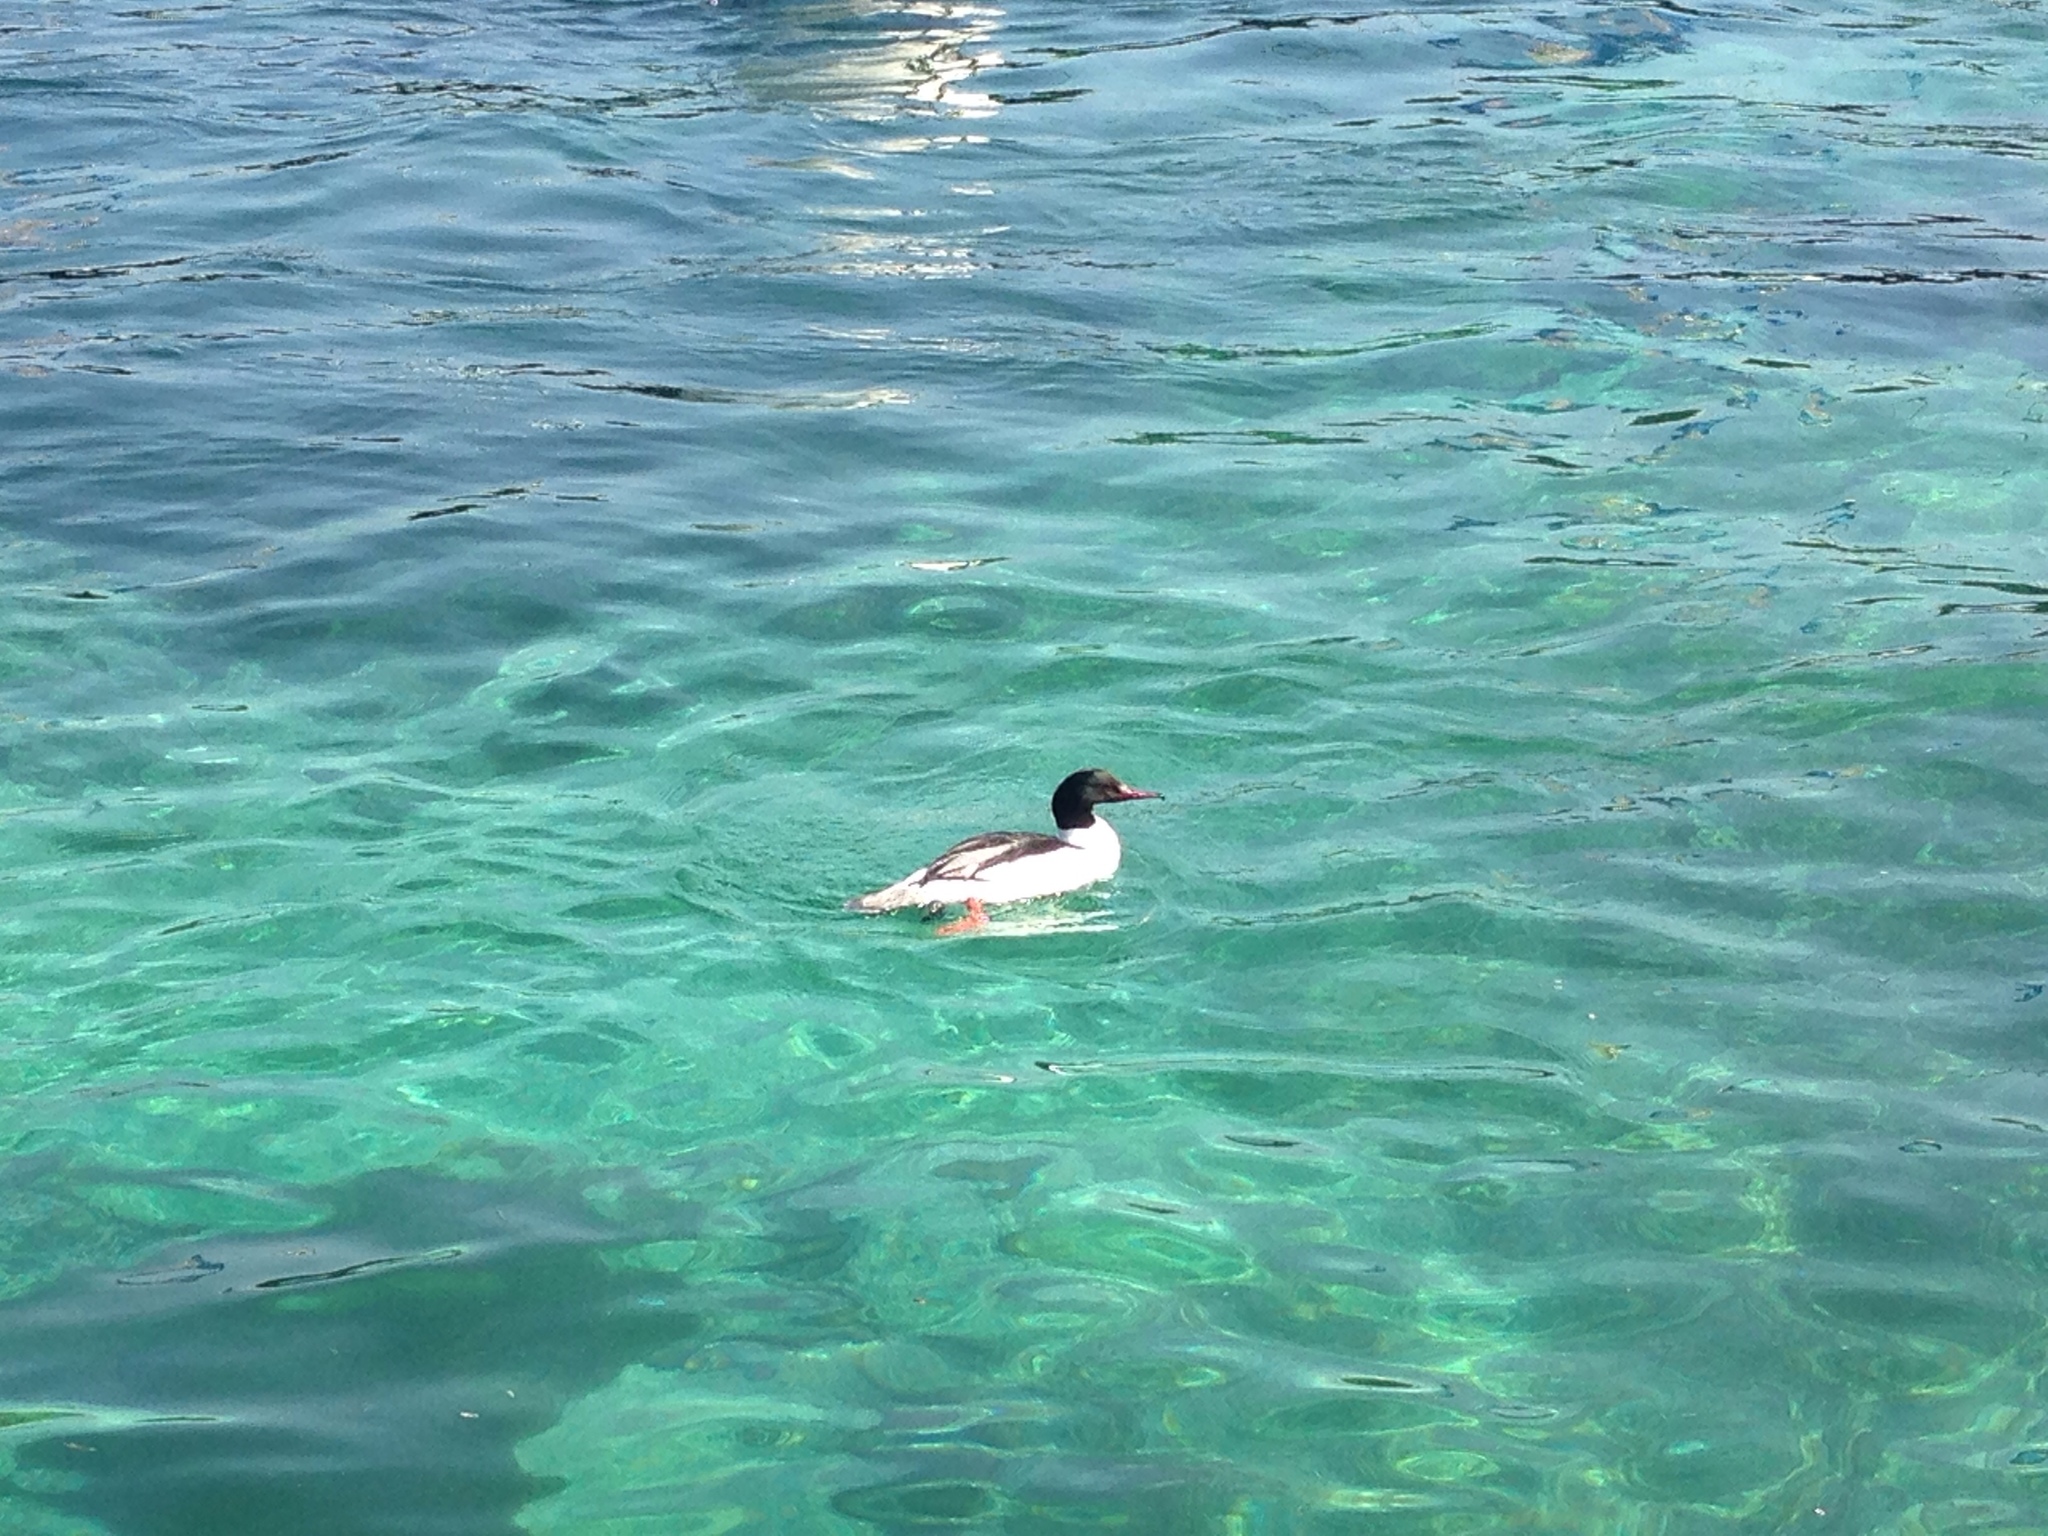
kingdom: Animalia
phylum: Chordata
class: Aves
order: Anseriformes
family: Anatidae
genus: Mergus
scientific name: Mergus merganser
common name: Common merganser
